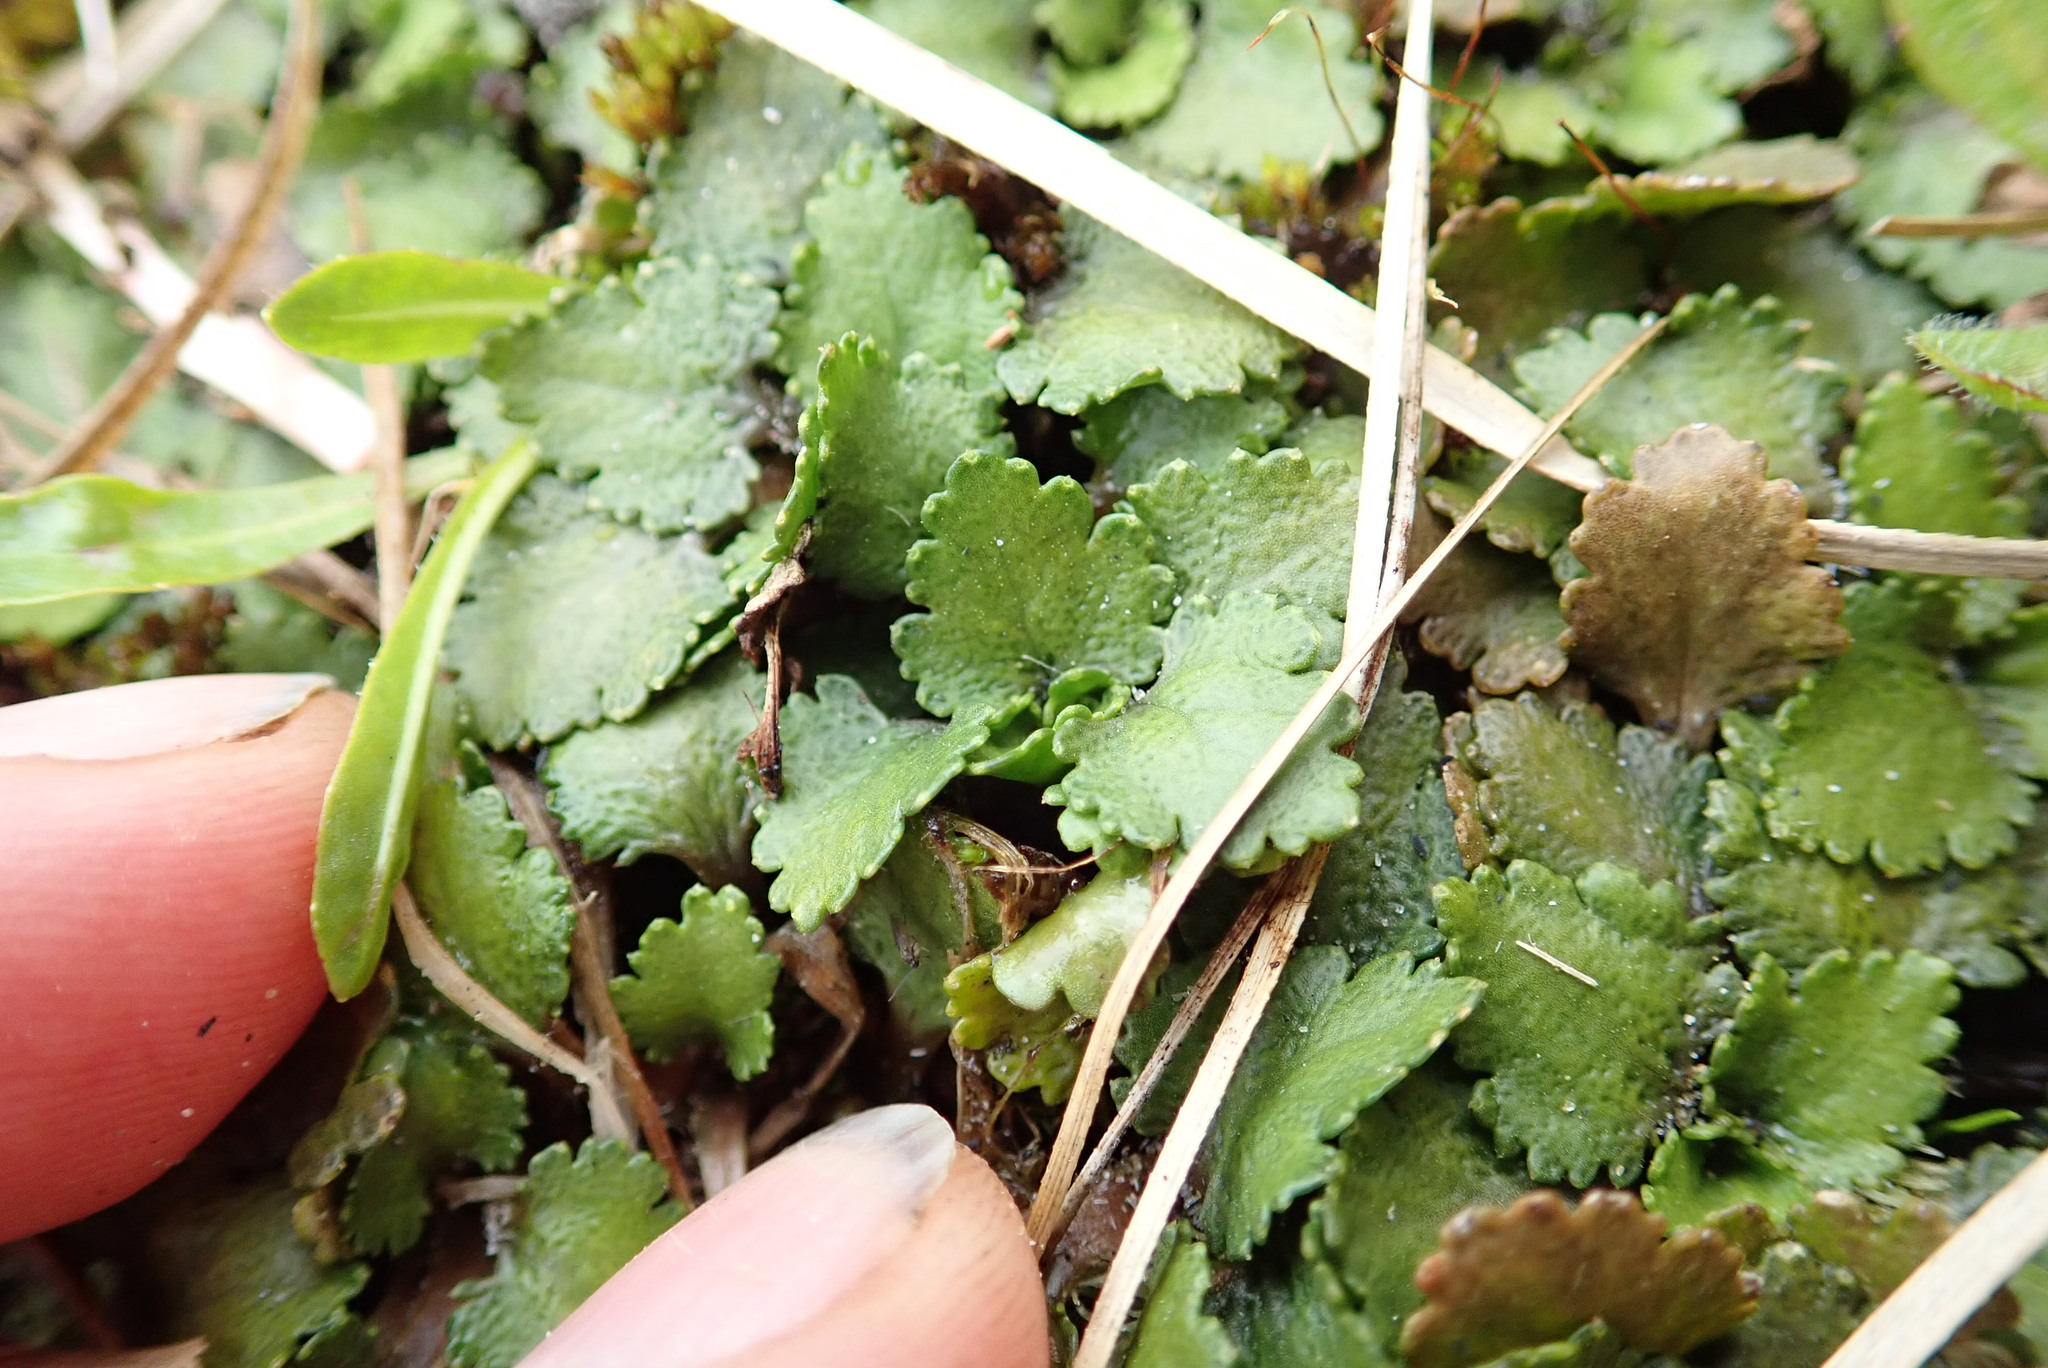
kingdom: Plantae
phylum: Tracheophyta
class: Magnoliopsida
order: Gunnerales
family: Gunneraceae
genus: Gunnera
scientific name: Gunnera dentata
